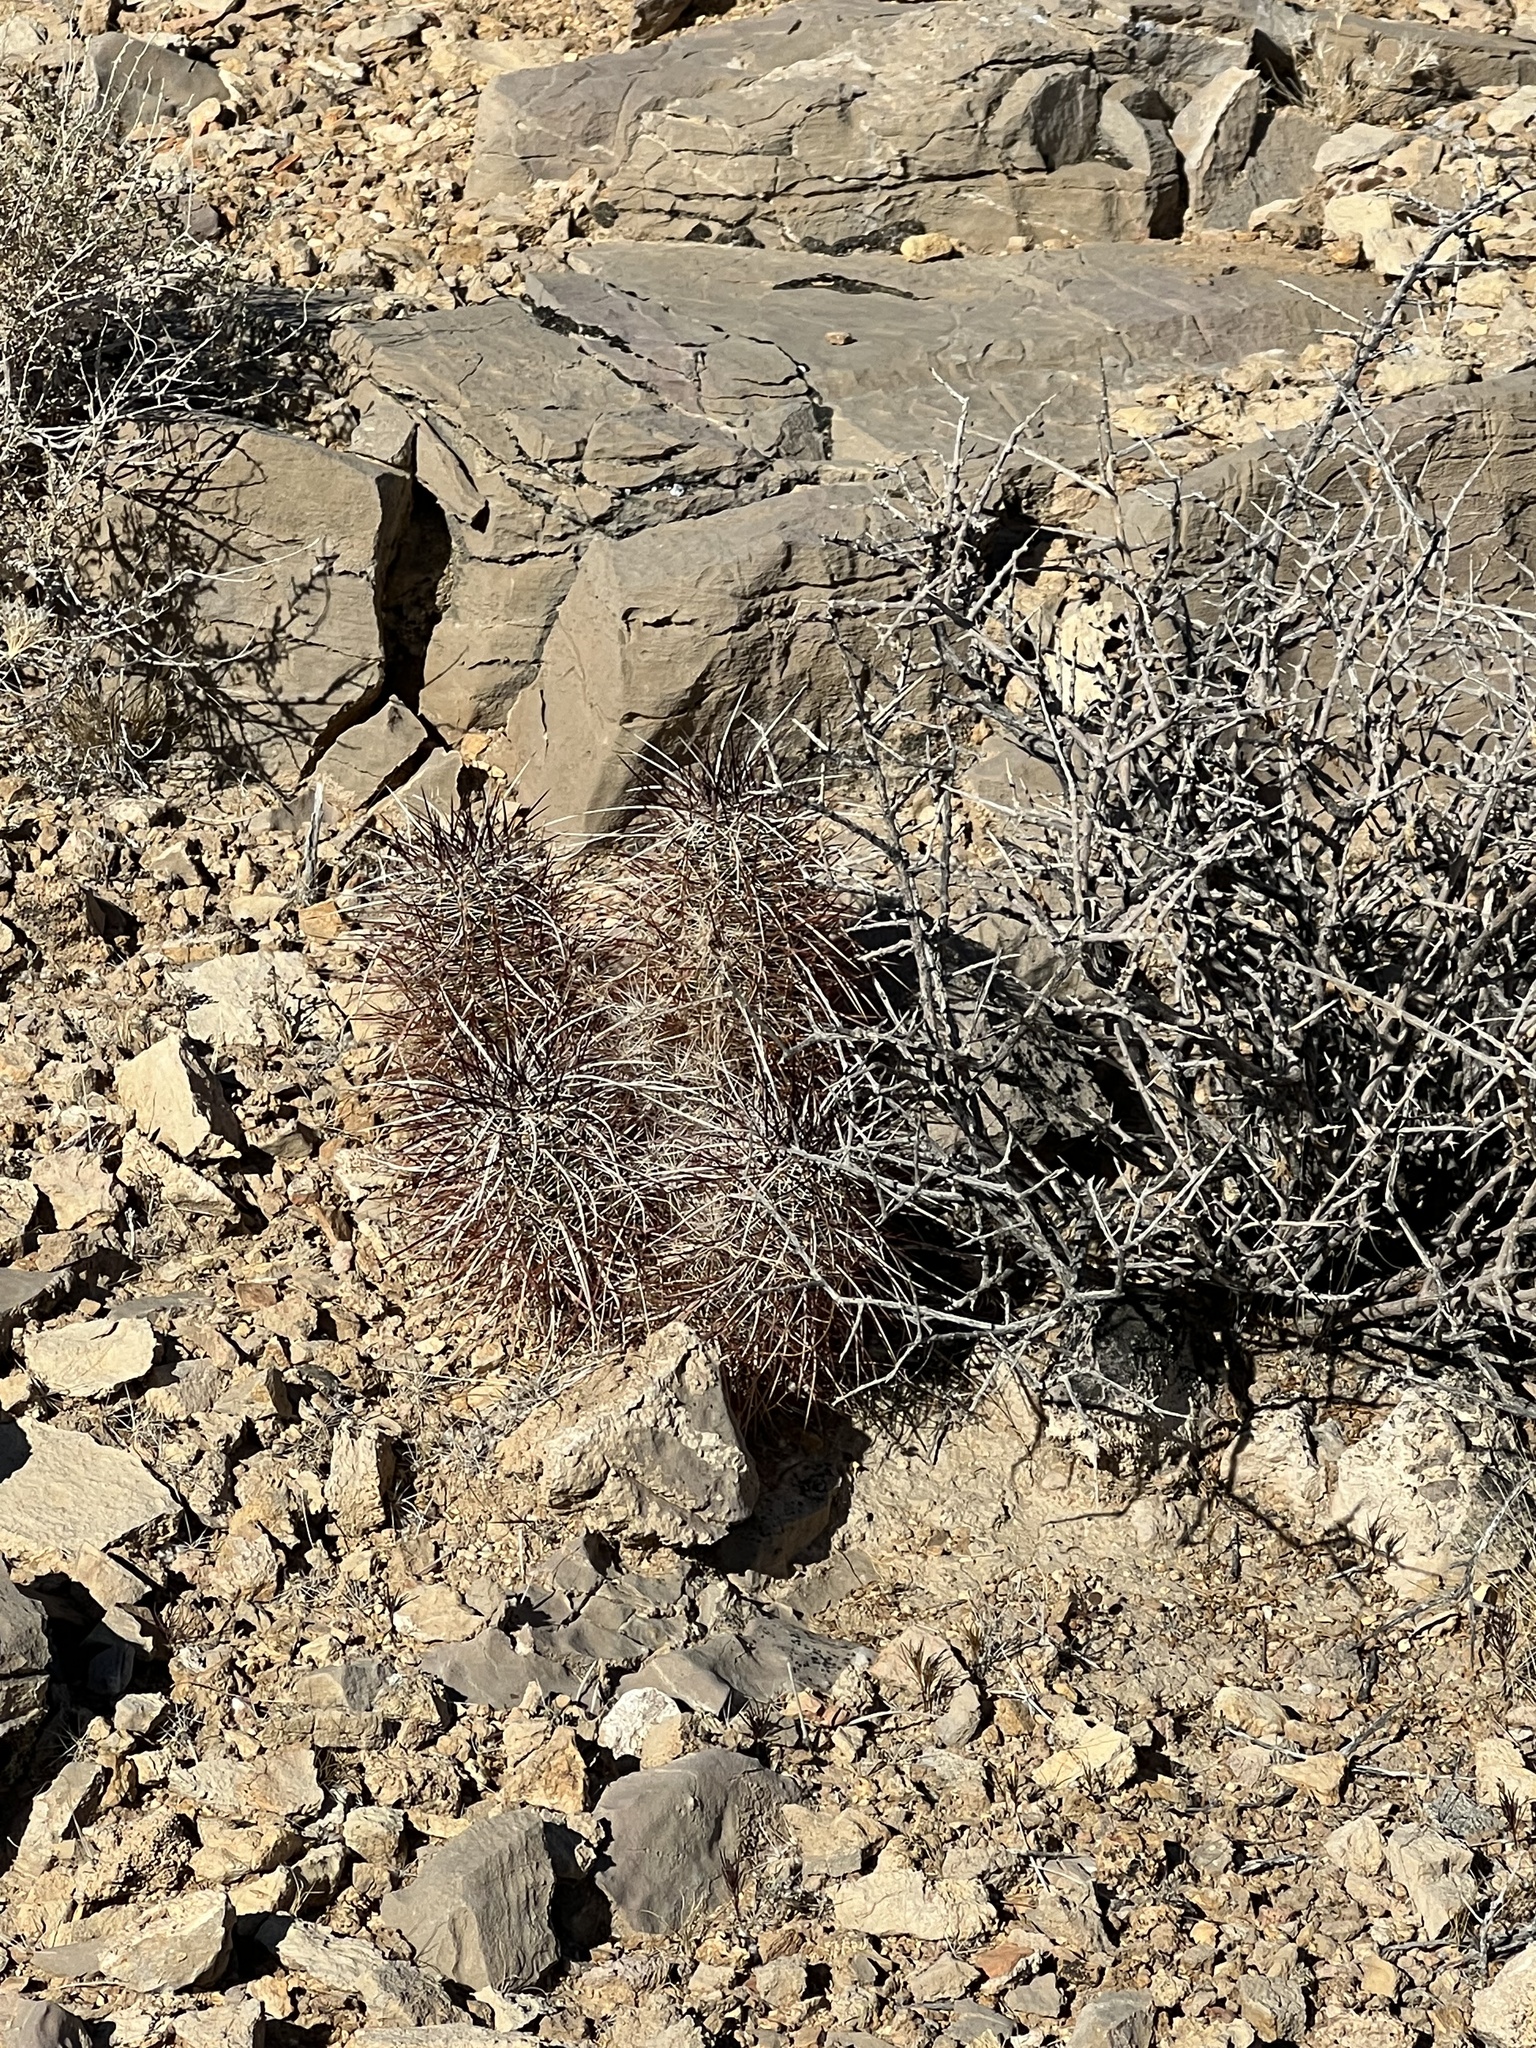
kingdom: Plantae
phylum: Tracheophyta
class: Magnoliopsida
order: Caryophyllales
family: Cactaceae
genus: Echinocereus
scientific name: Echinocereus engelmannii
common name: Engelmann's hedgehog cactus
